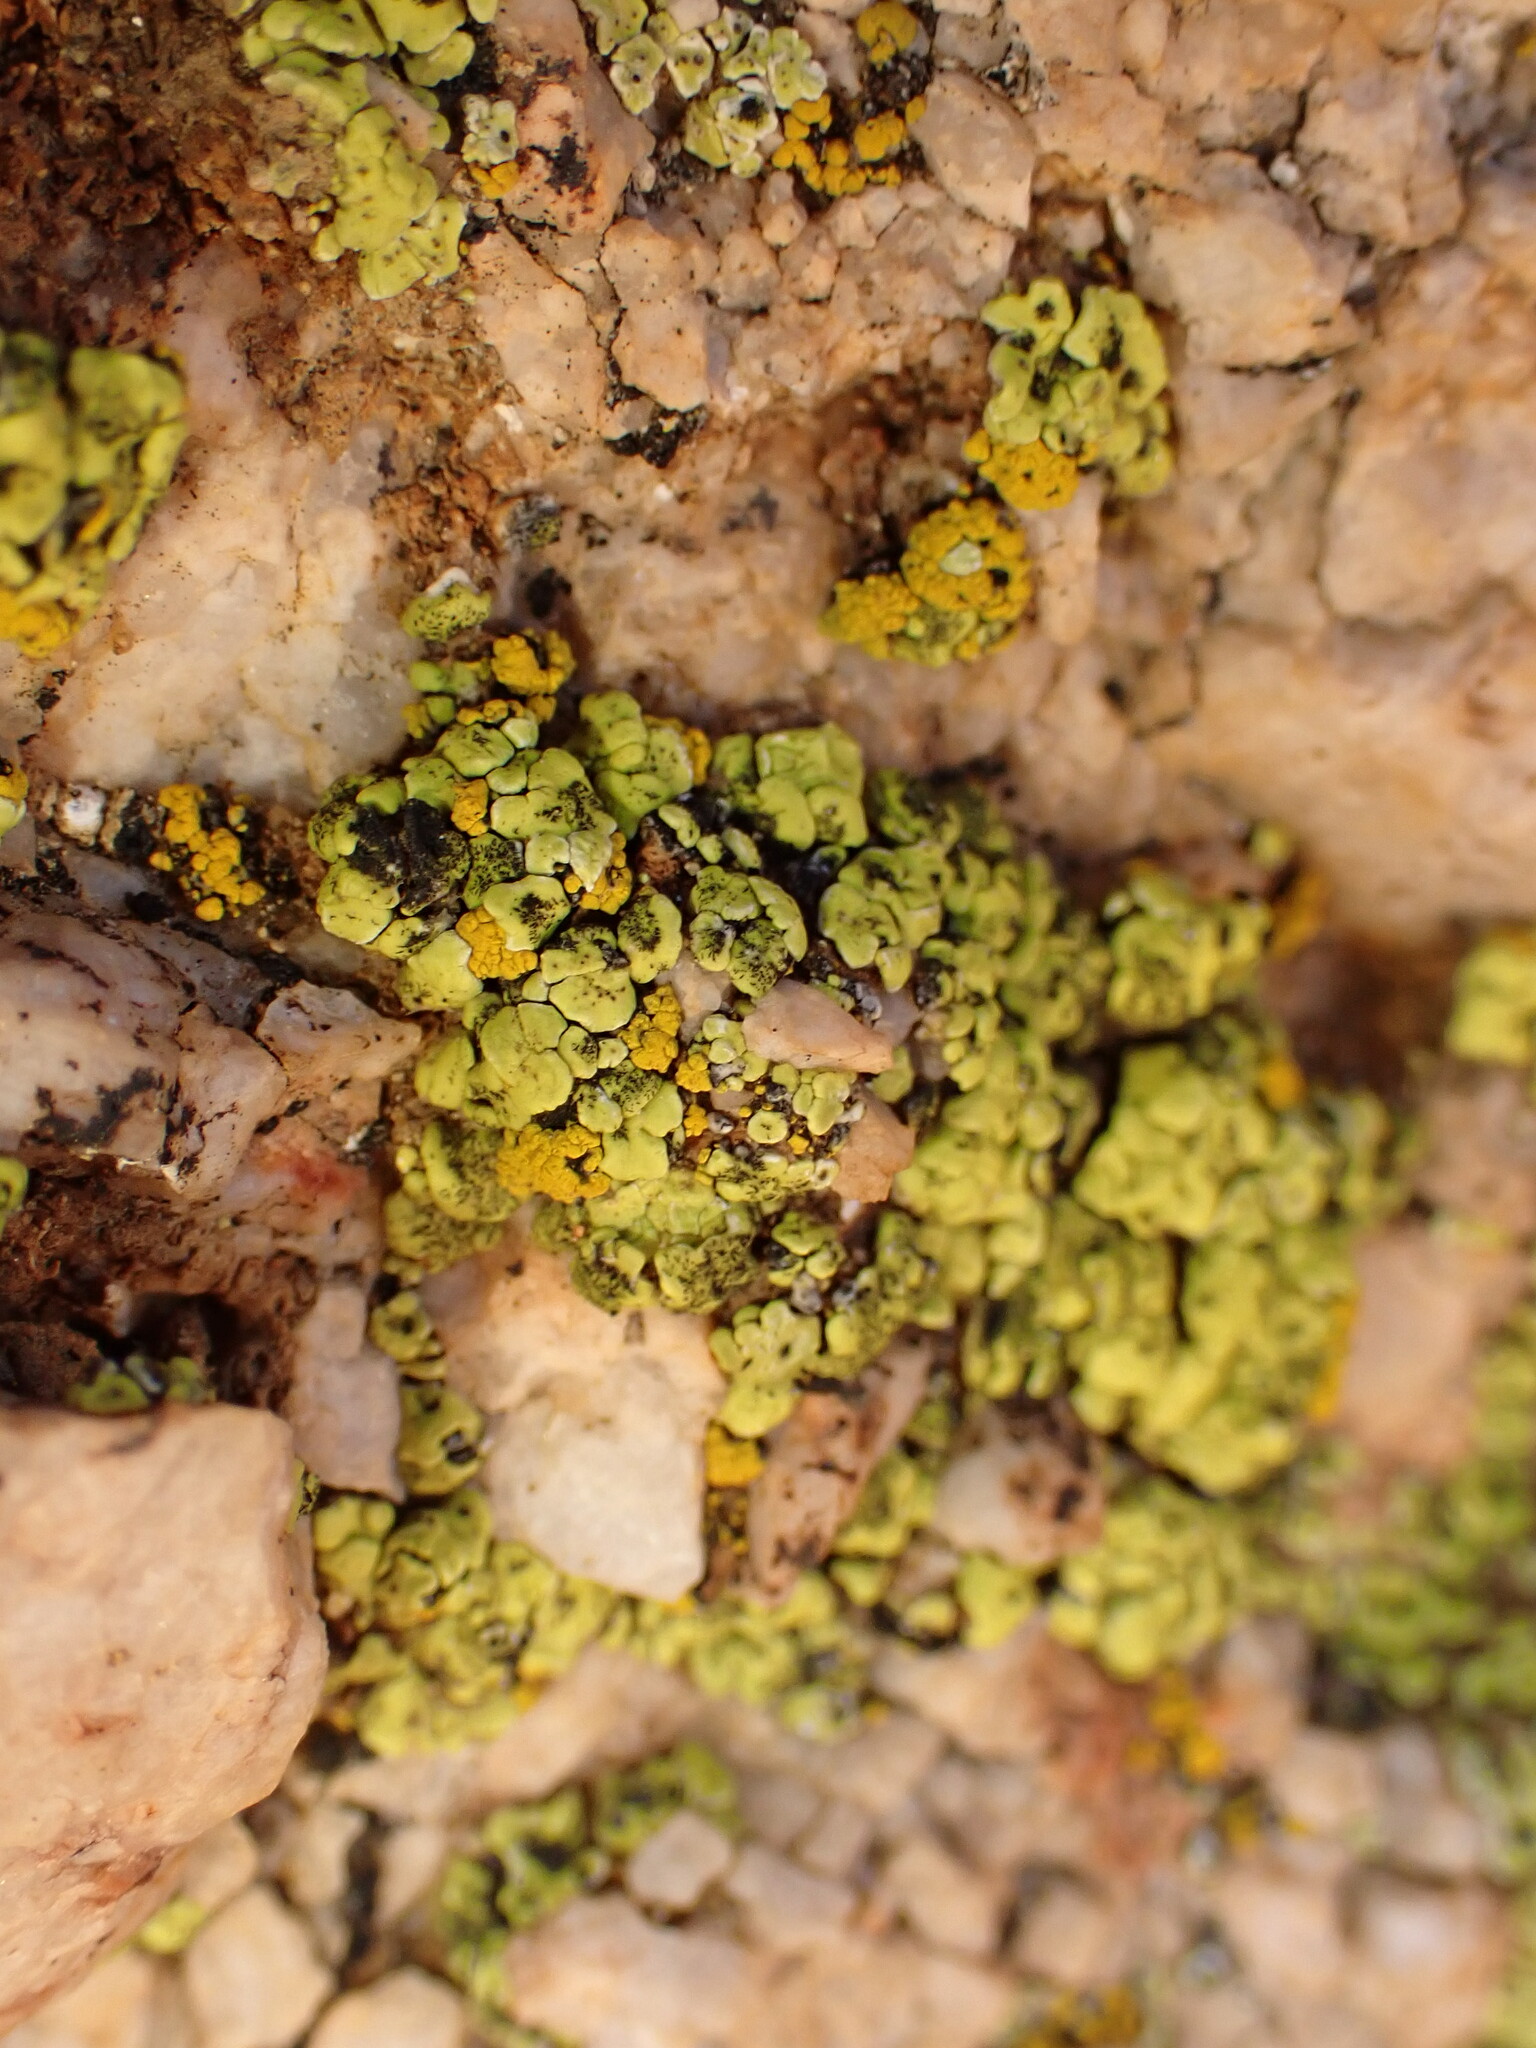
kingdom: Fungi
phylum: Ascomycota
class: Lecanoromycetes
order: Acarosporales
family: Acarosporaceae
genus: Acarospora
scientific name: Acarospora socialis
